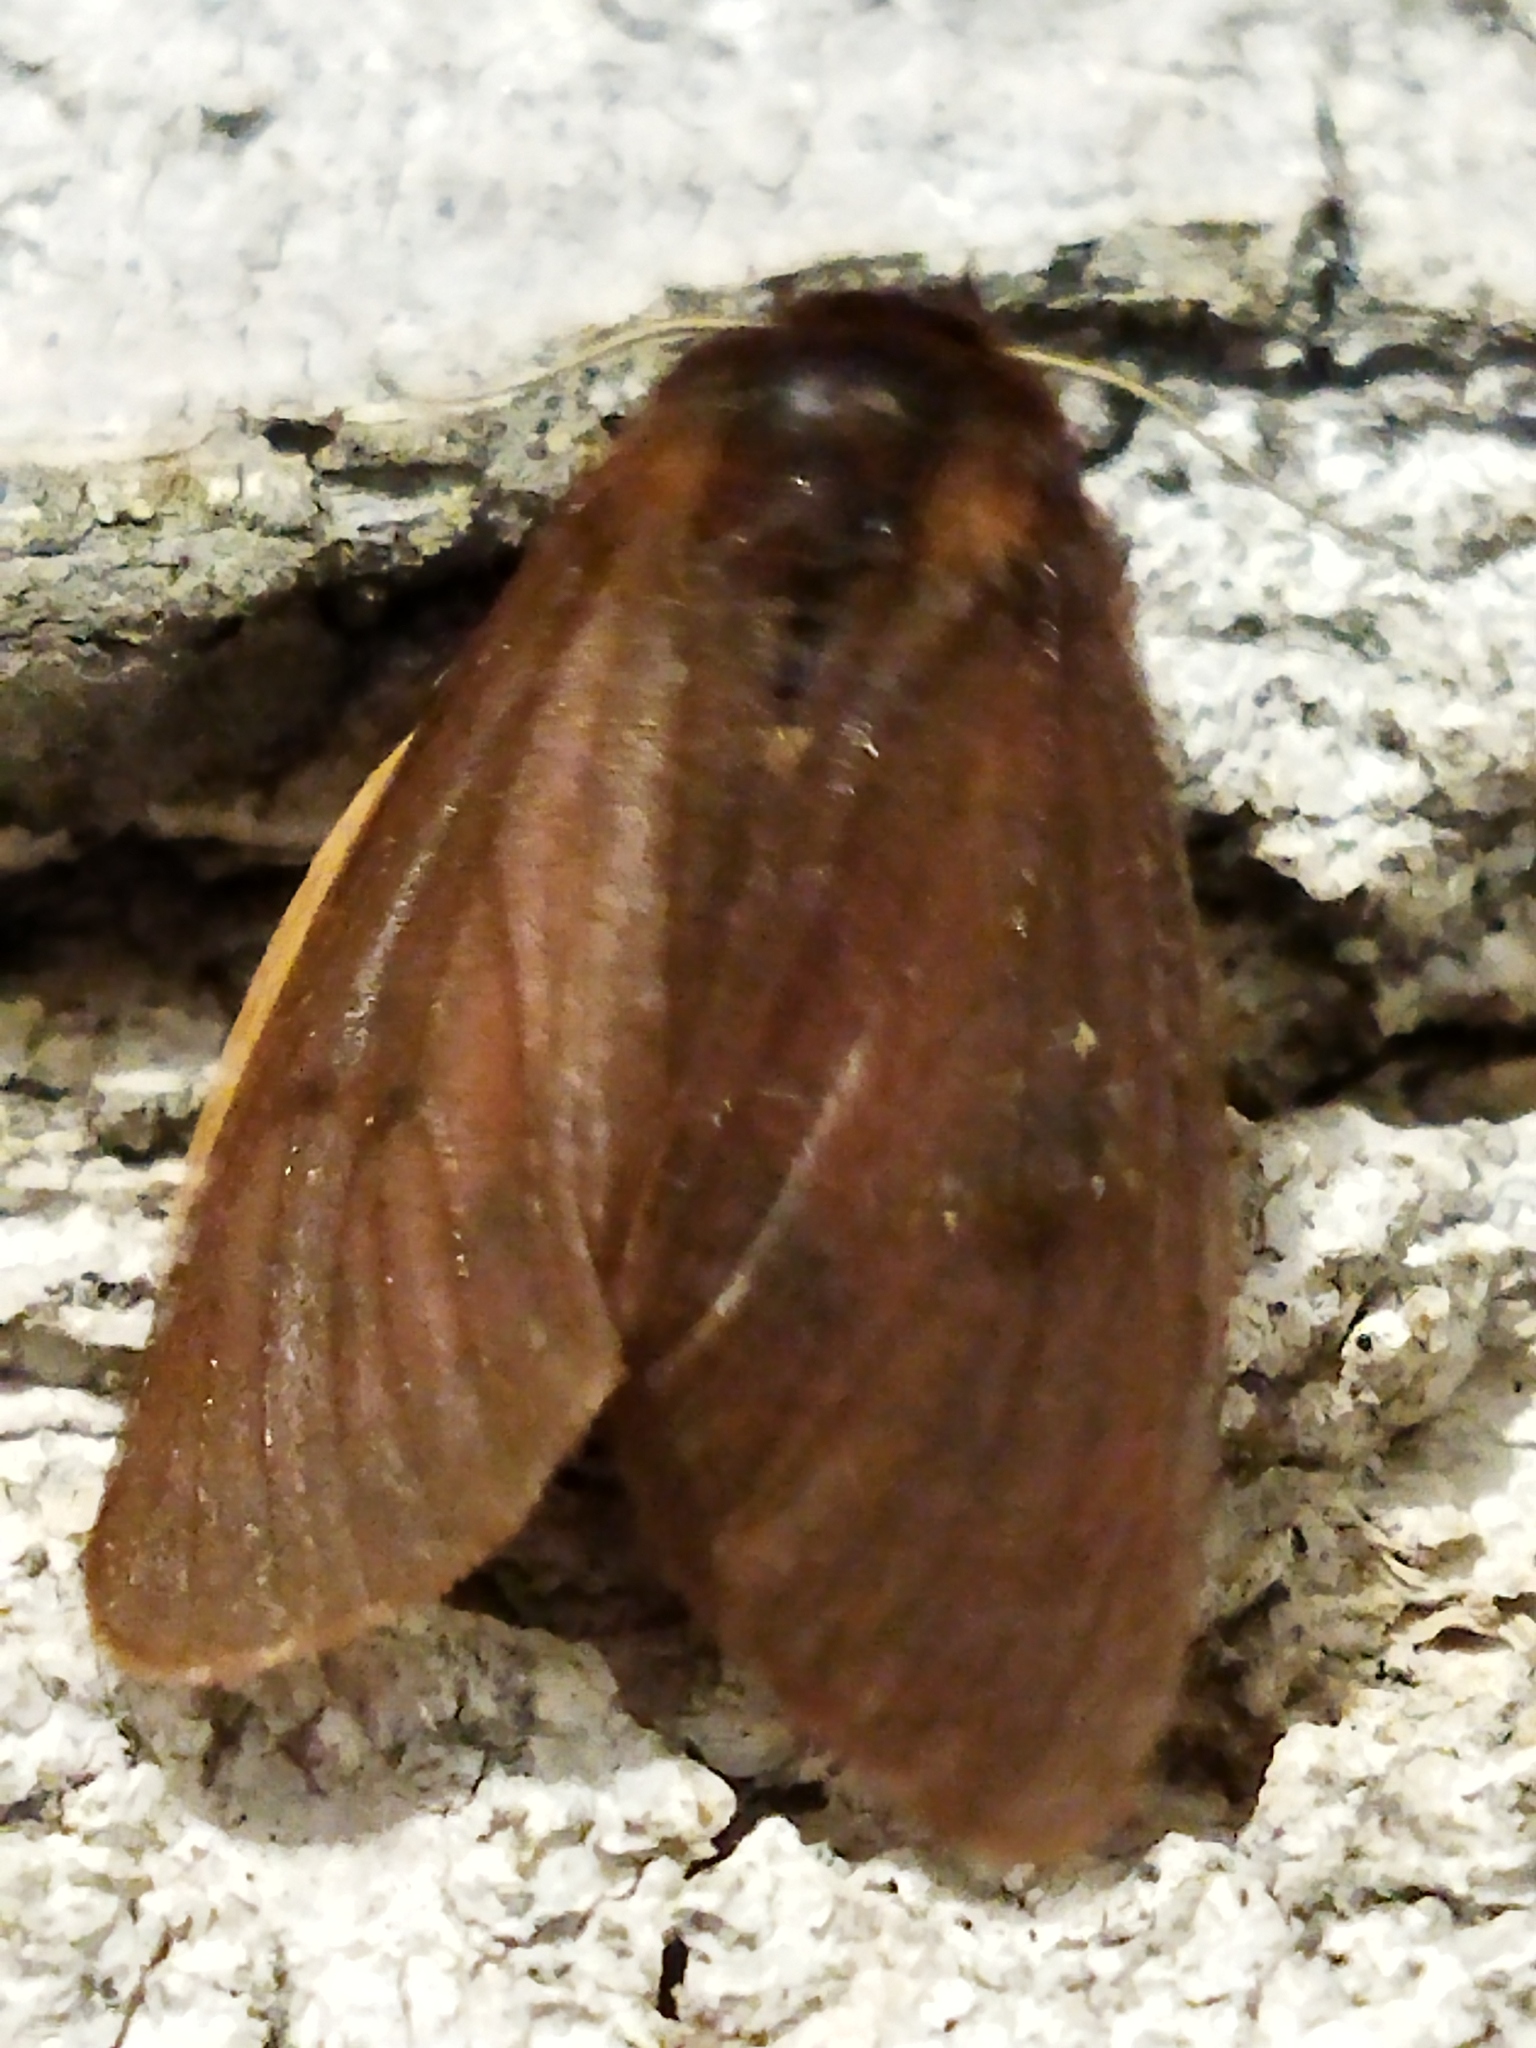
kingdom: Animalia
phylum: Arthropoda
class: Insecta
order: Lepidoptera
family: Erebidae
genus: Phragmatobia
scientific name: Phragmatobia fuliginosa
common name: Ruby tiger
